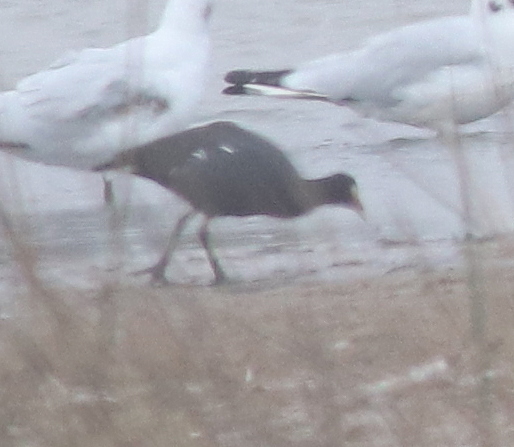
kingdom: Animalia
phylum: Chordata
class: Aves
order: Gruiformes
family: Rallidae
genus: Gallinula
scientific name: Gallinula chloropus
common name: Common moorhen
